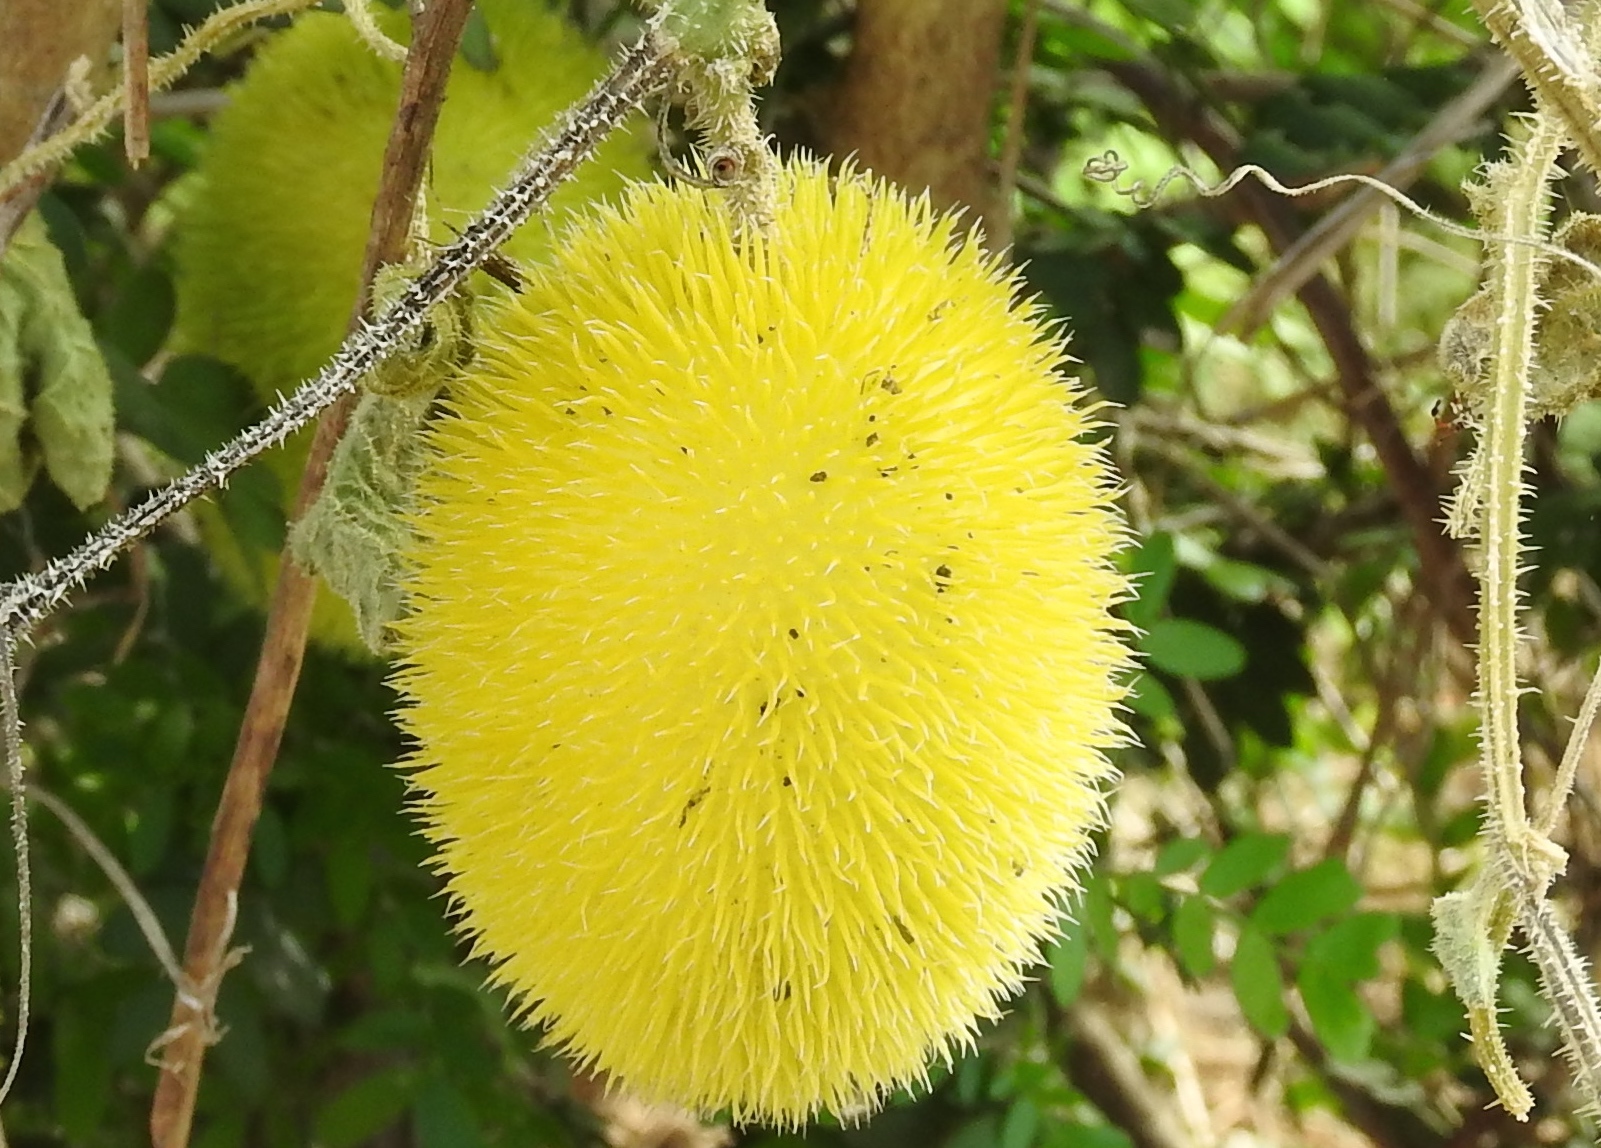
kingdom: Plantae
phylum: Tracheophyta
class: Magnoliopsida
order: Cucurbitales
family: Cucurbitaceae
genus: Cucumis
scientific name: Cucumis dipsaceus
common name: Hedgehog gourd
